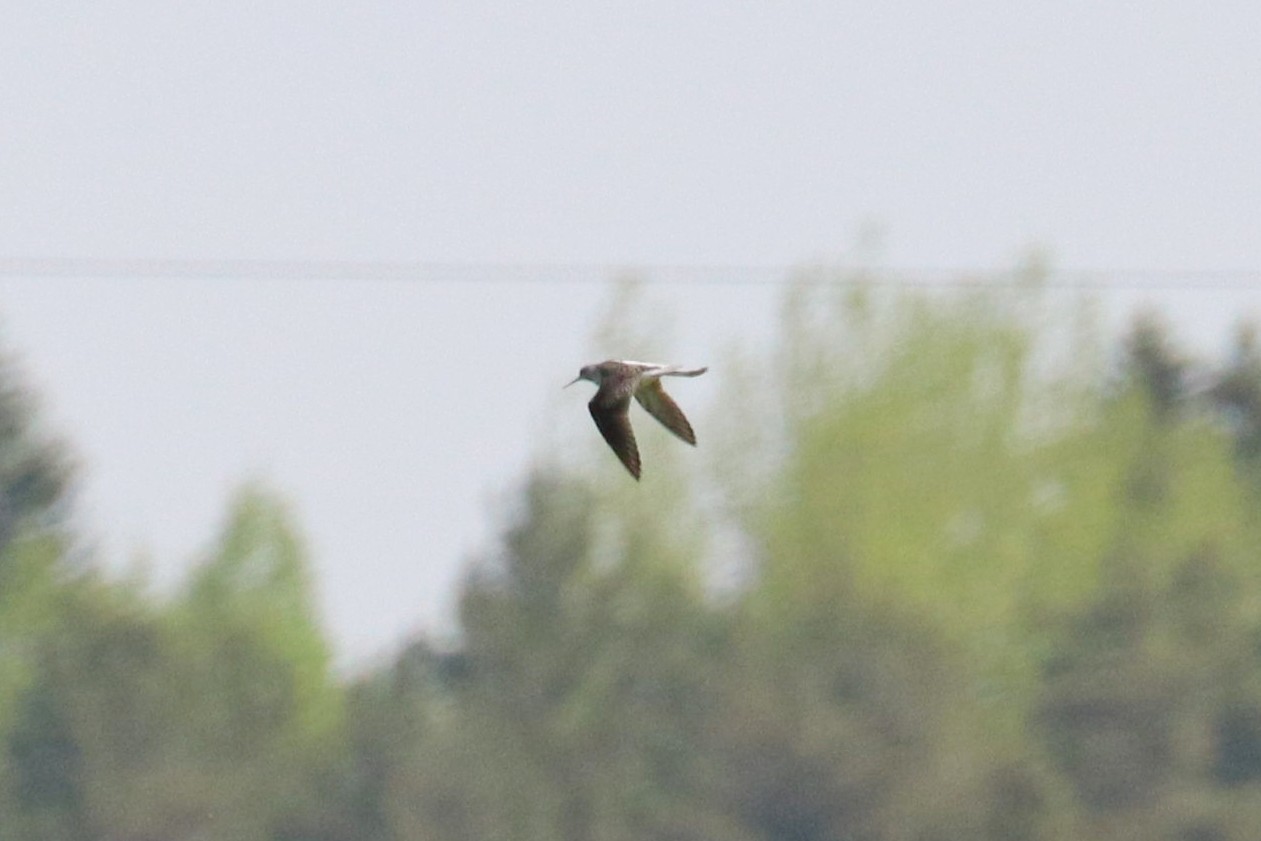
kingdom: Animalia
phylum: Chordata
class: Aves
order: Charadriiformes
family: Scolopacidae
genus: Tringa
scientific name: Tringa stagnatilis
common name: Marsh sandpiper
